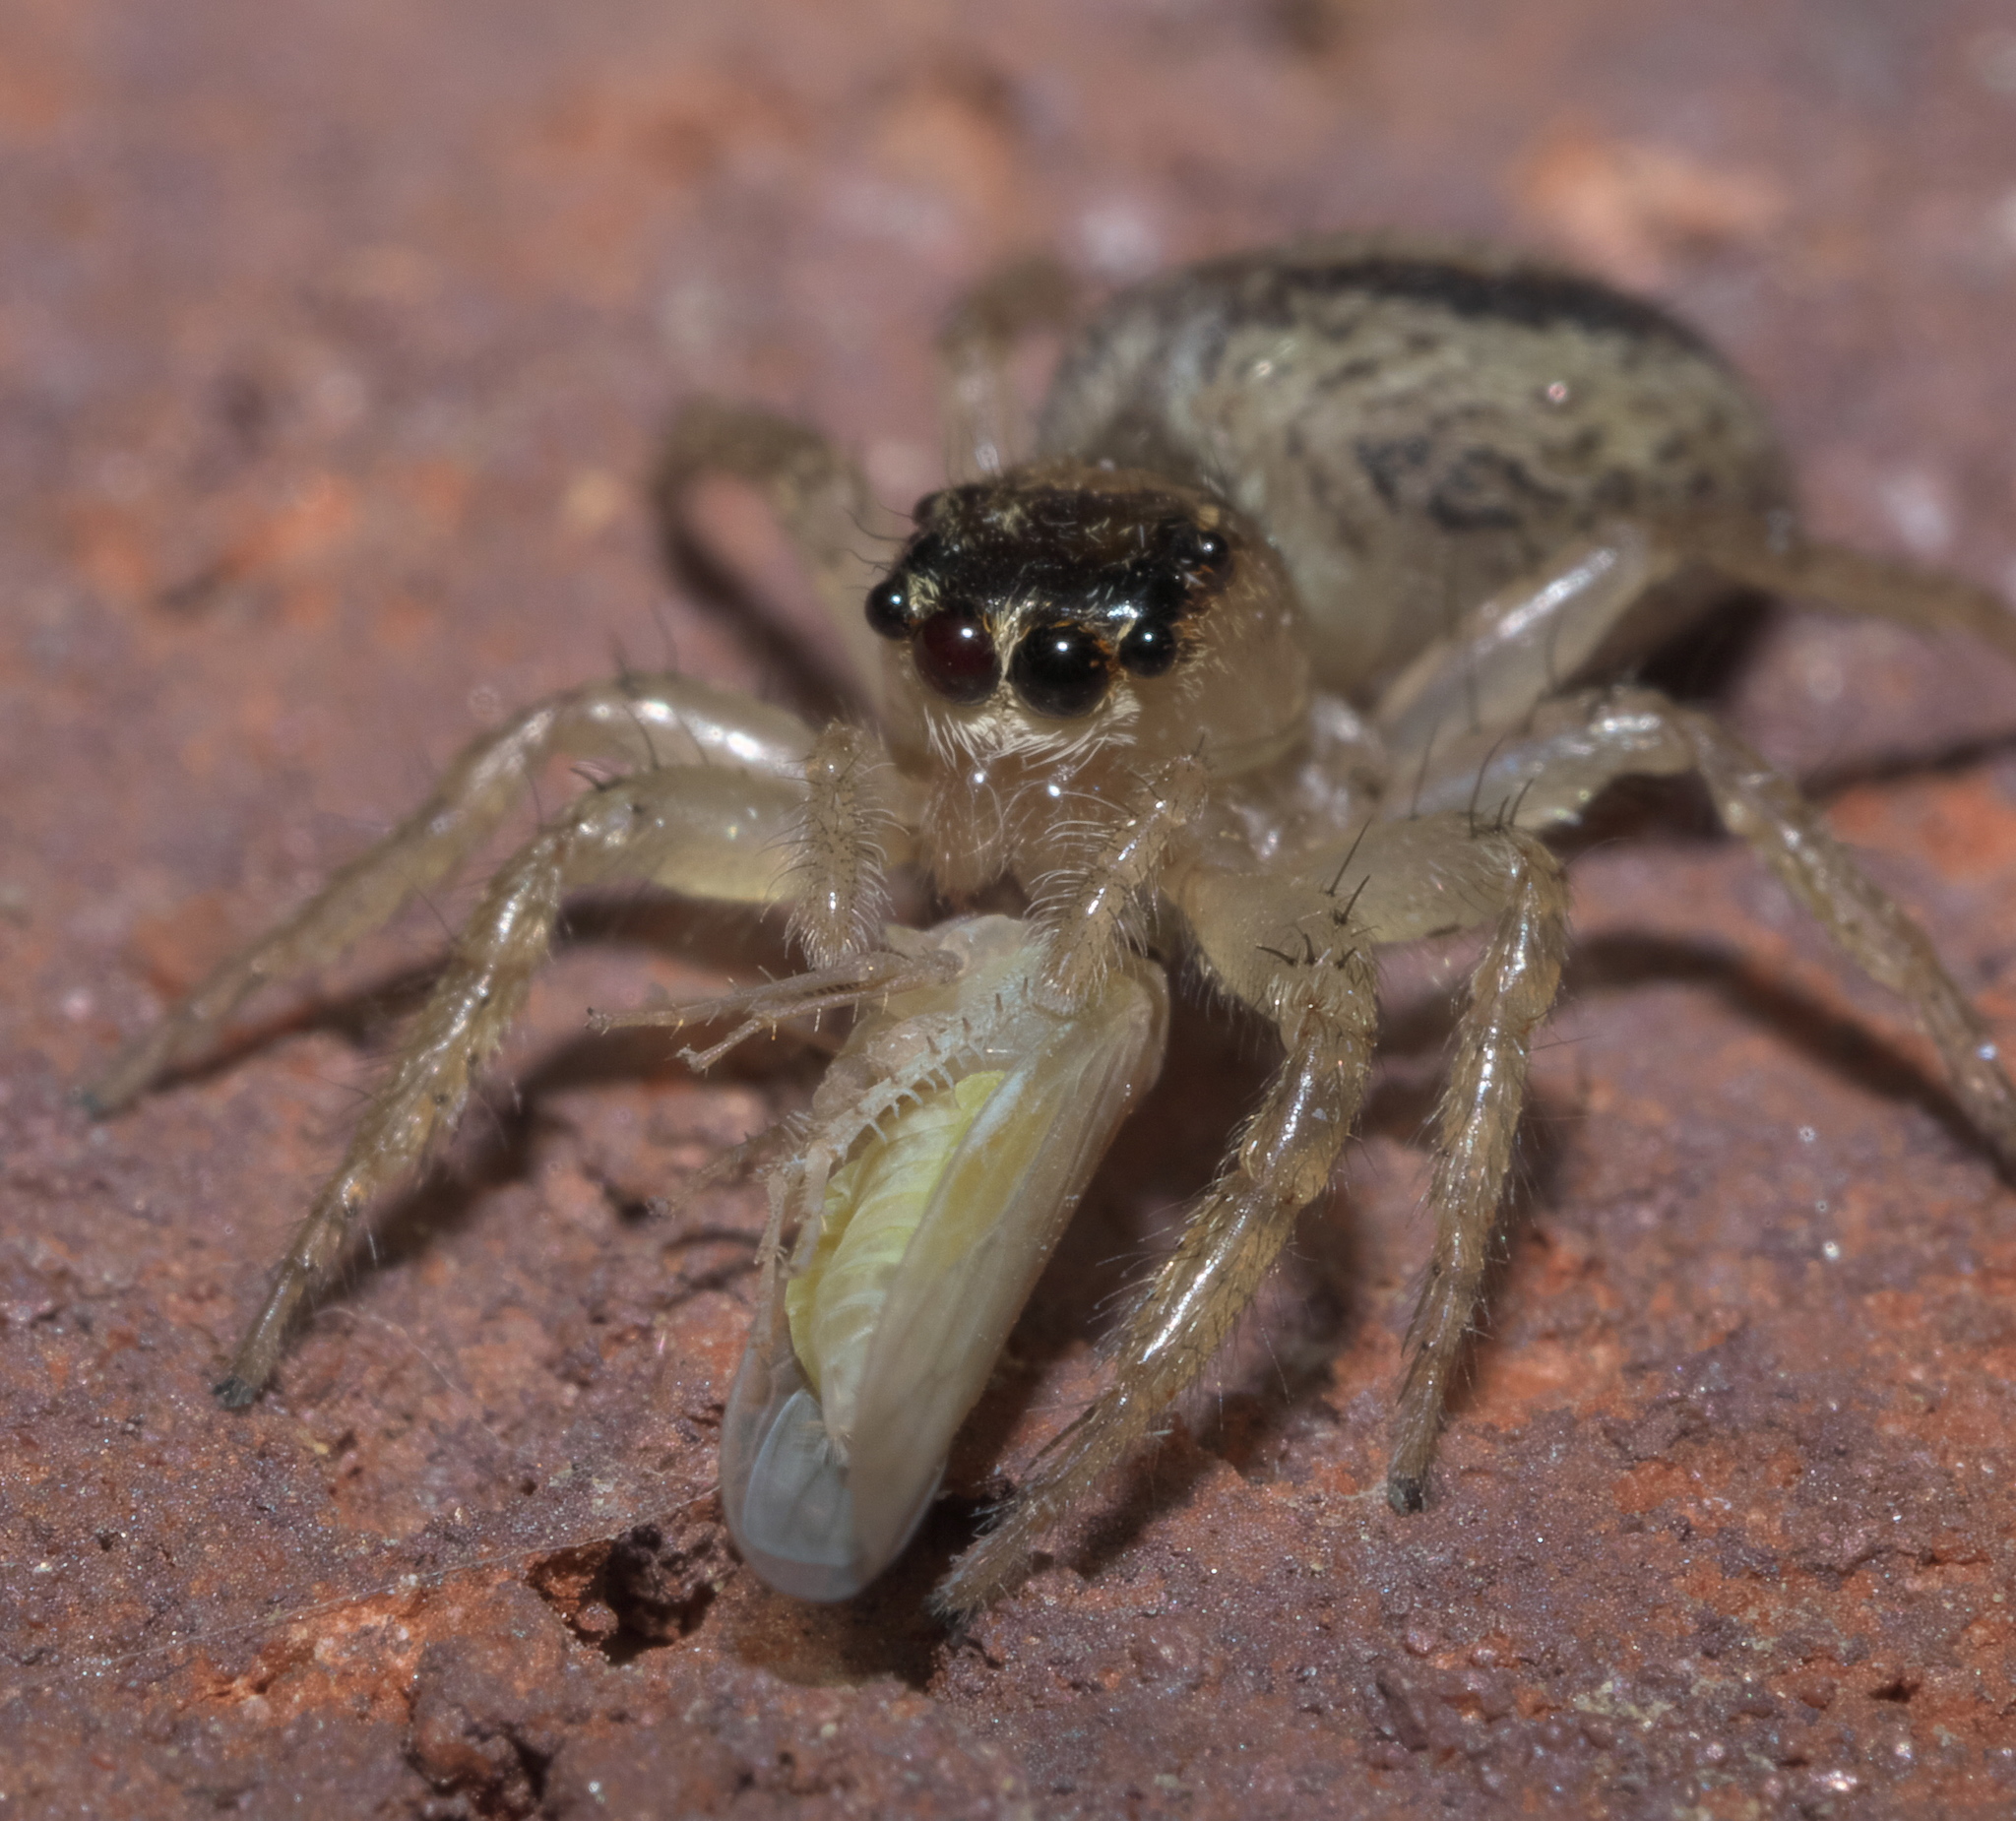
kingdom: Animalia
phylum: Arthropoda
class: Arachnida
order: Araneae
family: Salticidae
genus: Maevia
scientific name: Maevia inclemens
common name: Dimorphic jumper
